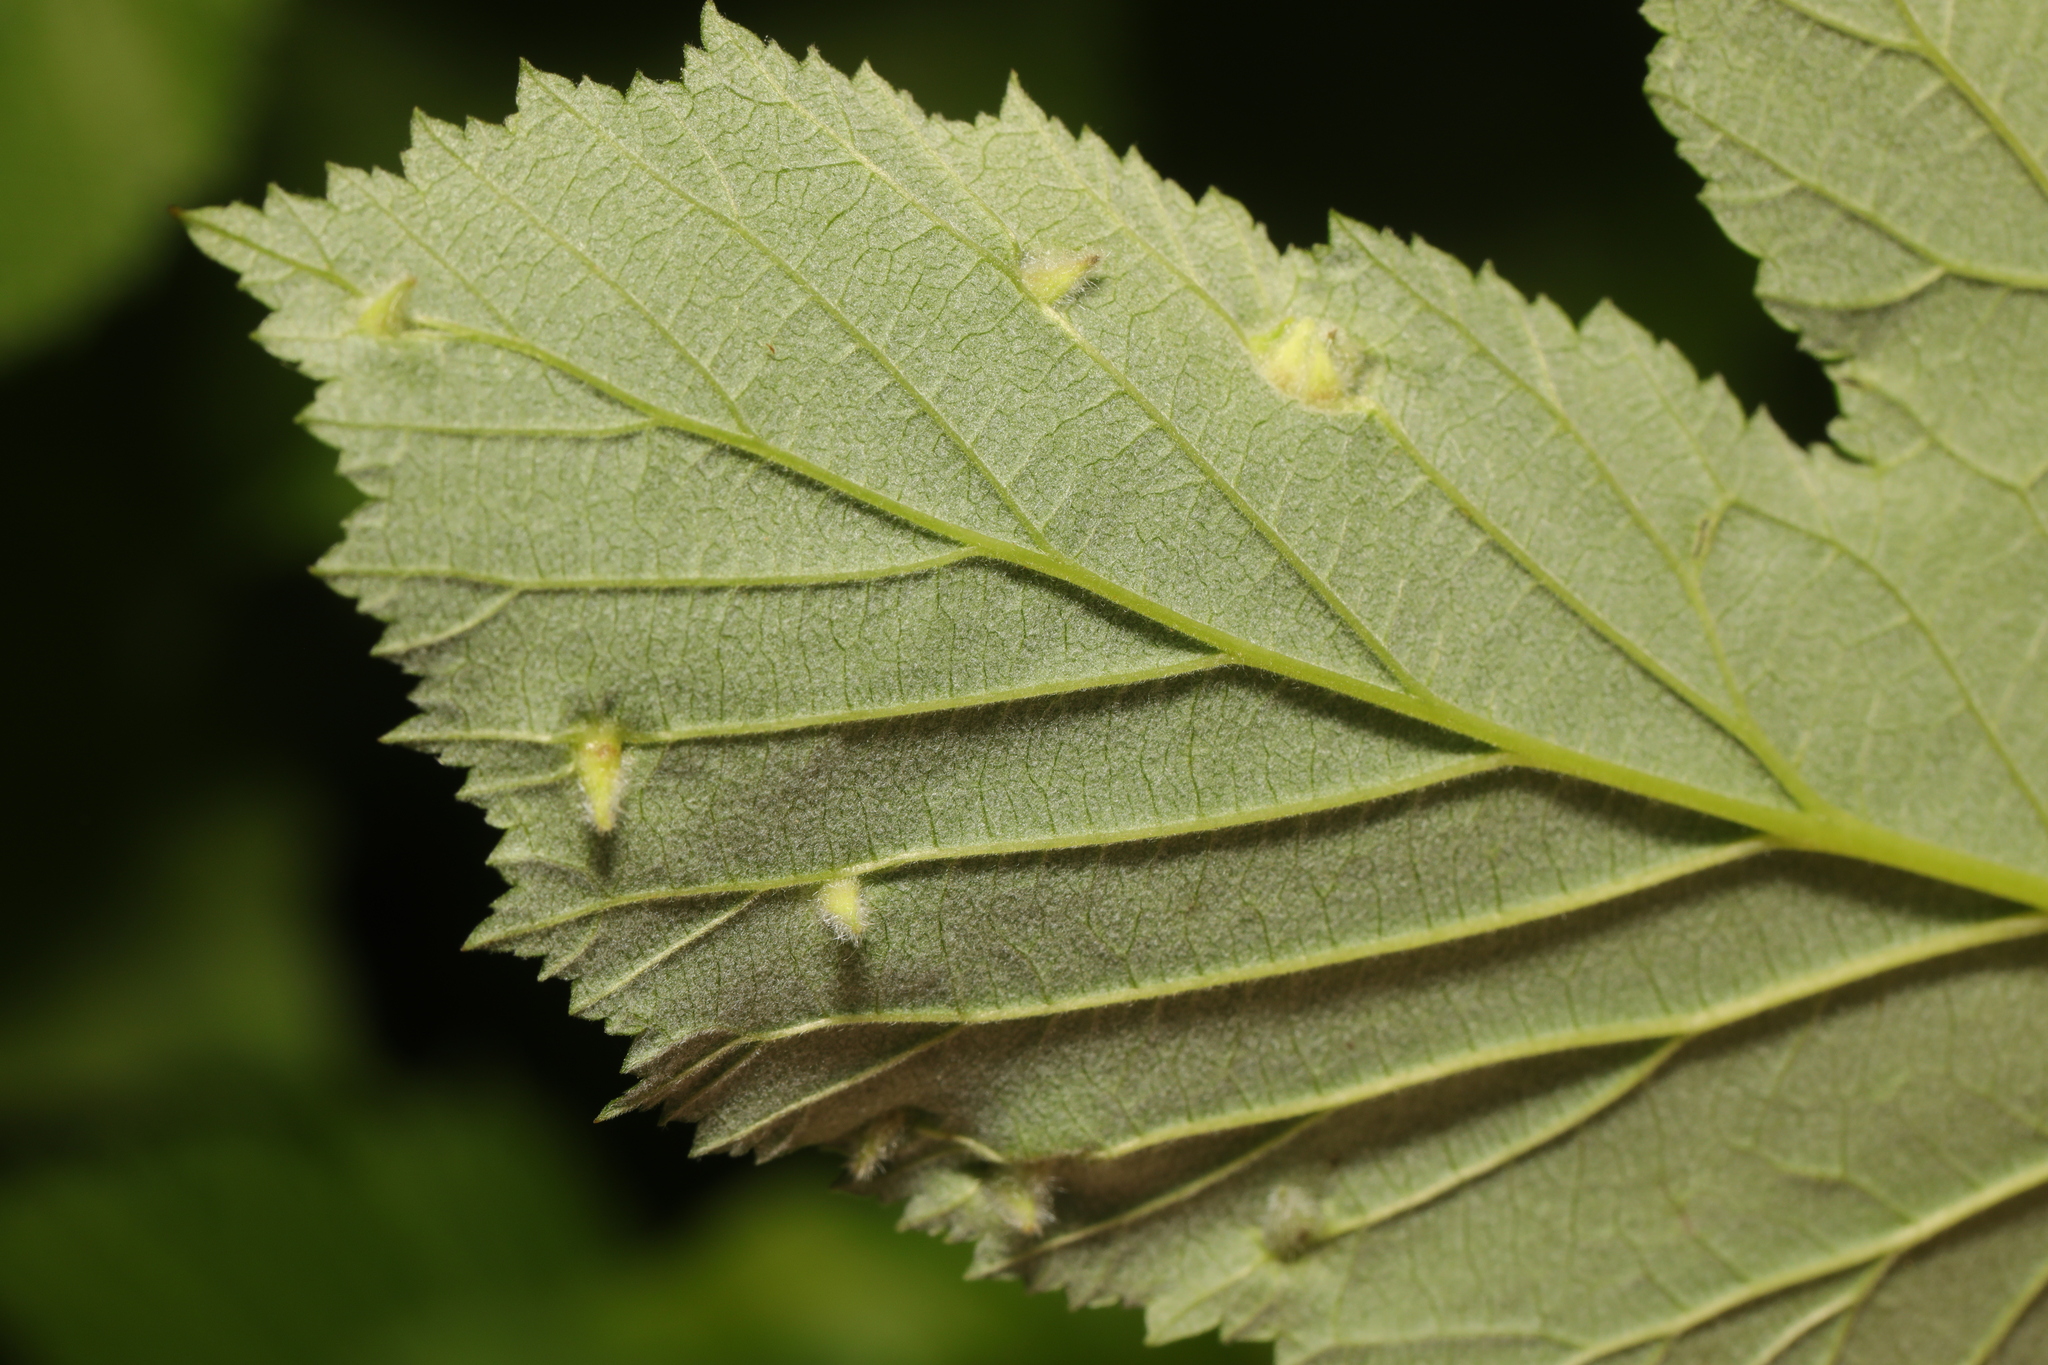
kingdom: Animalia
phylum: Arthropoda
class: Insecta
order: Diptera
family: Cecidomyiidae
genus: Dasineura
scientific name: Dasineura ulmaria
